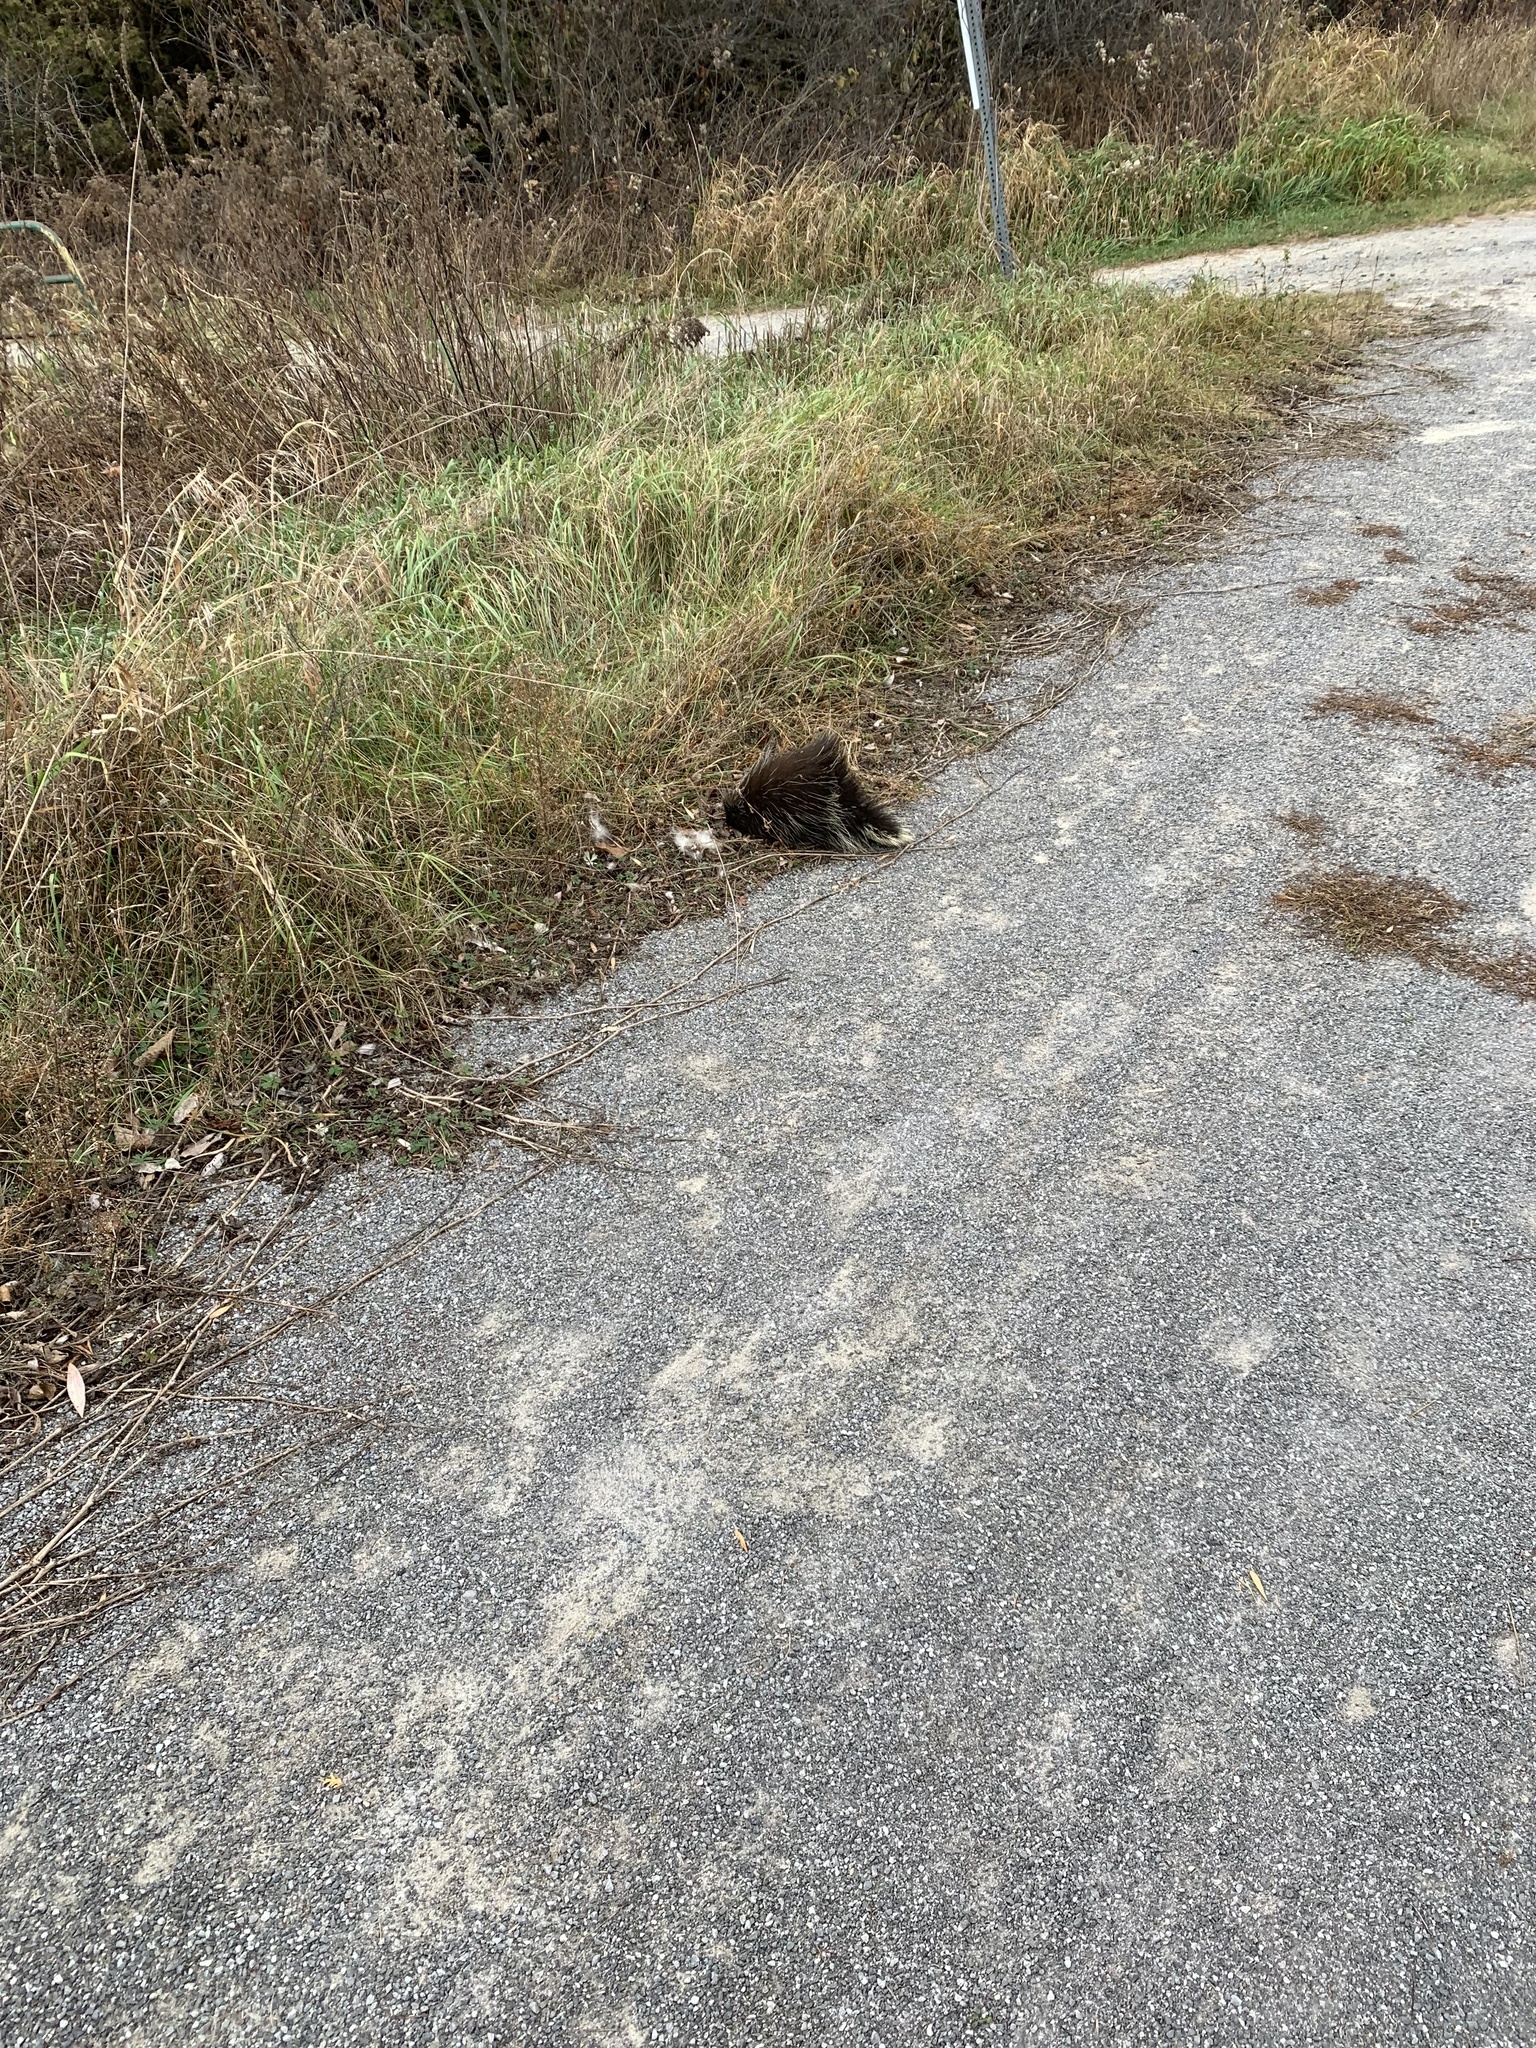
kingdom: Animalia
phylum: Chordata
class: Mammalia
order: Rodentia
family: Erethizontidae
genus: Erethizon
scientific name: Erethizon dorsatus
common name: North american porcupine
